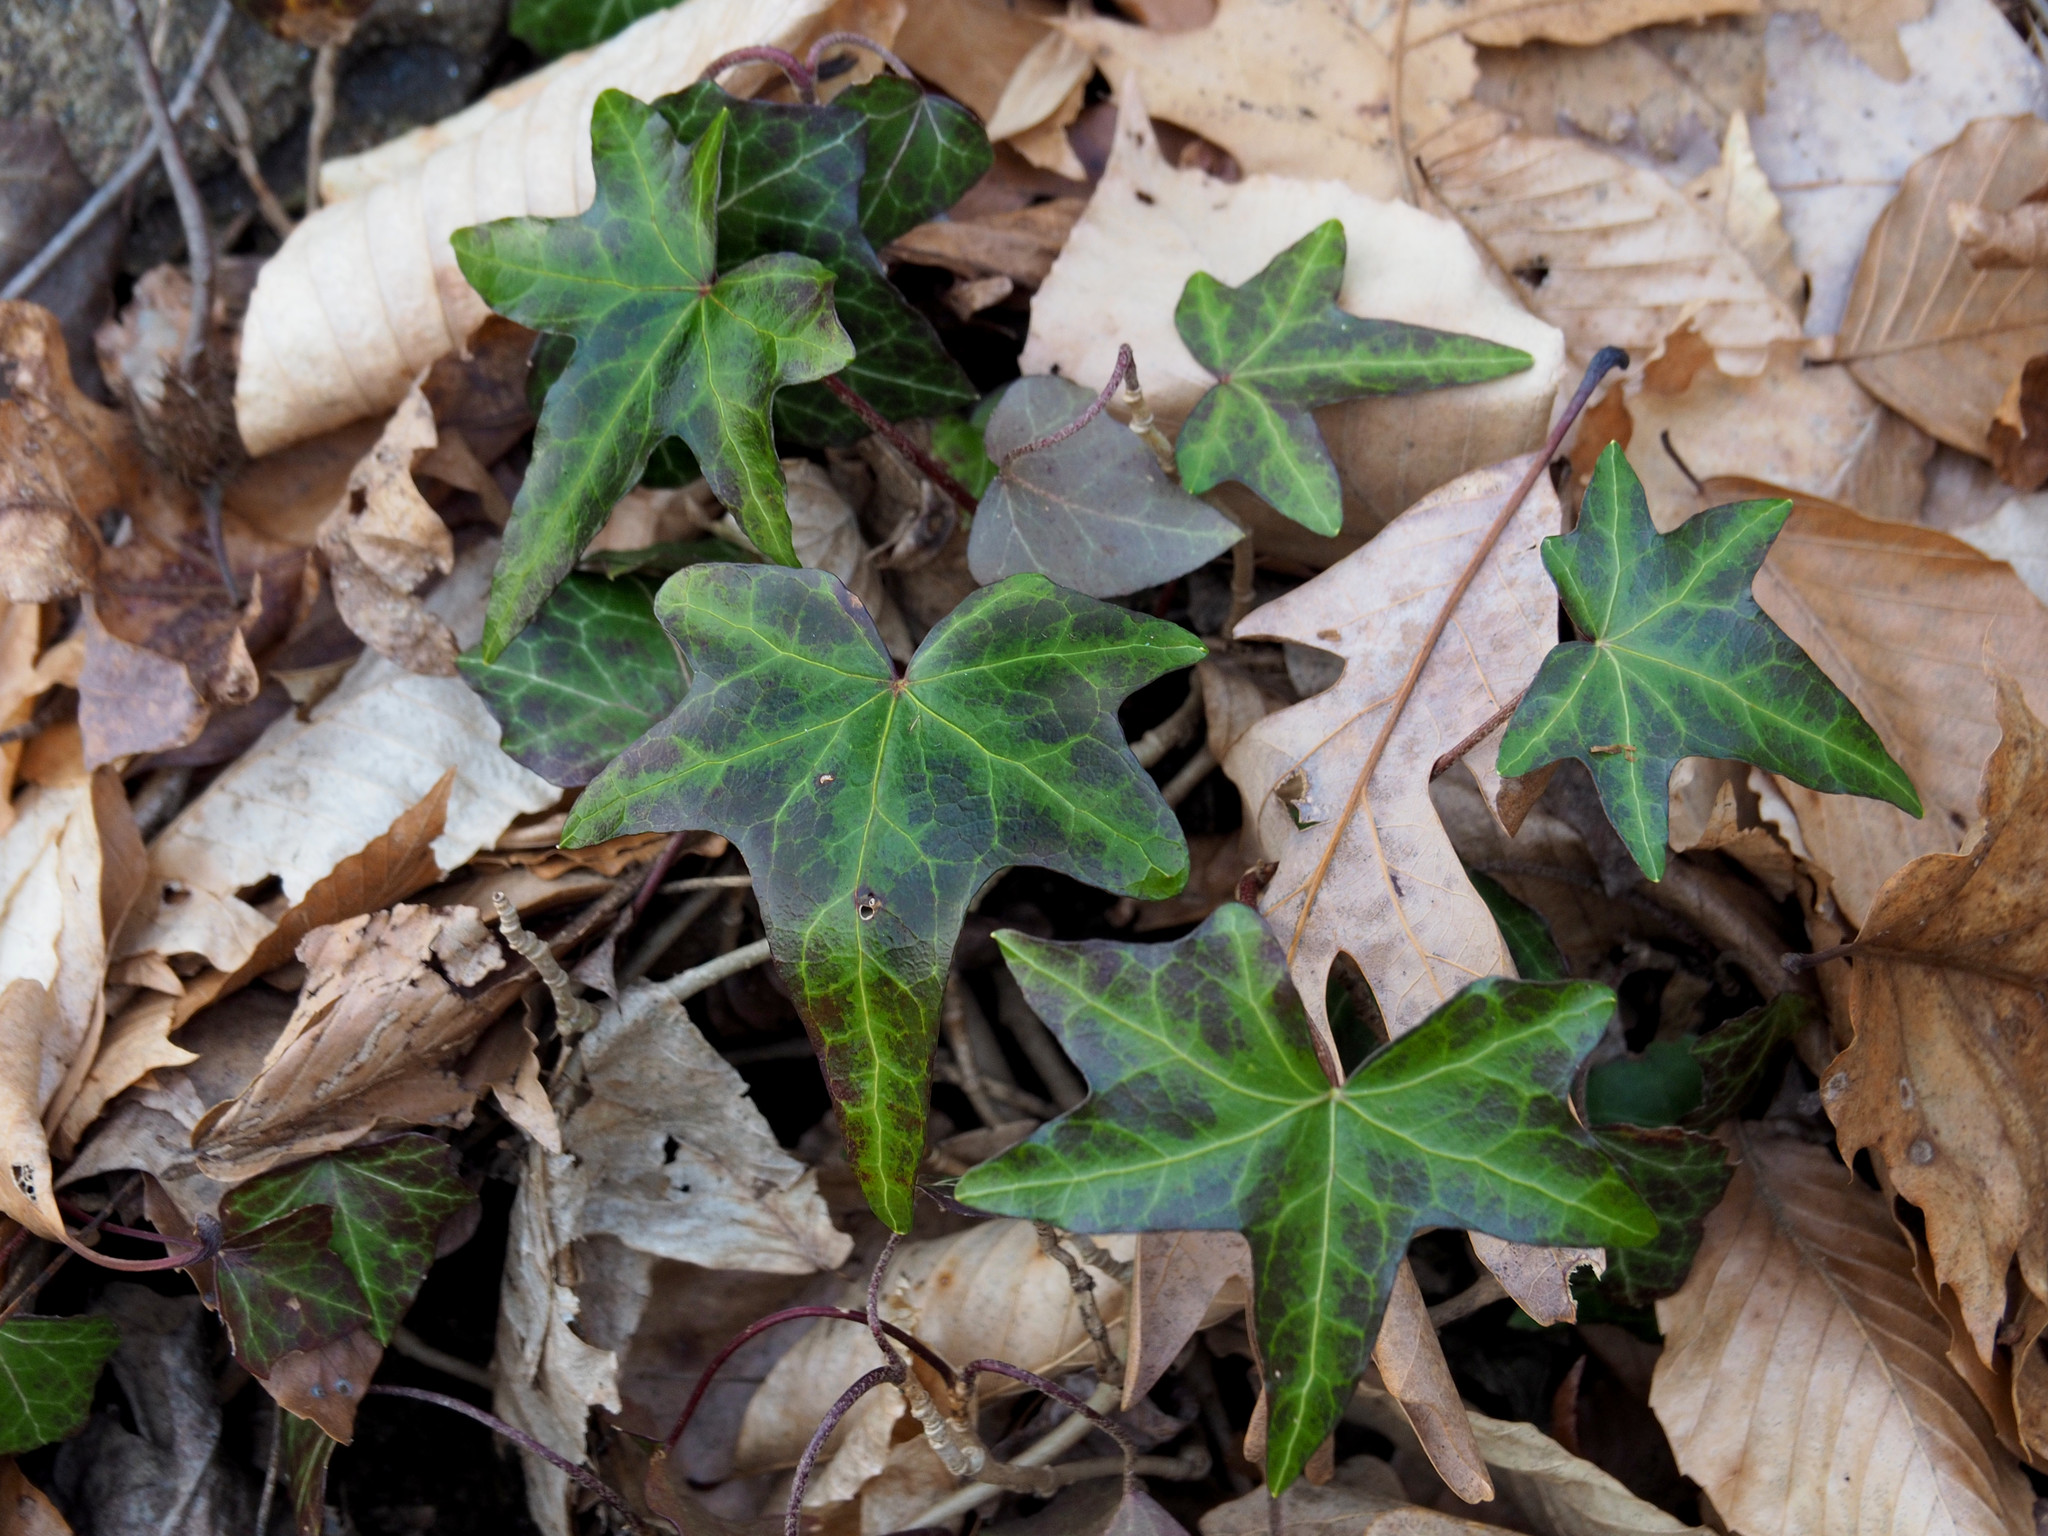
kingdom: Plantae
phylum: Tracheophyta
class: Magnoliopsida
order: Apiales
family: Araliaceae
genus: Hedera
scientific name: Hedera helix
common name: Ivy
